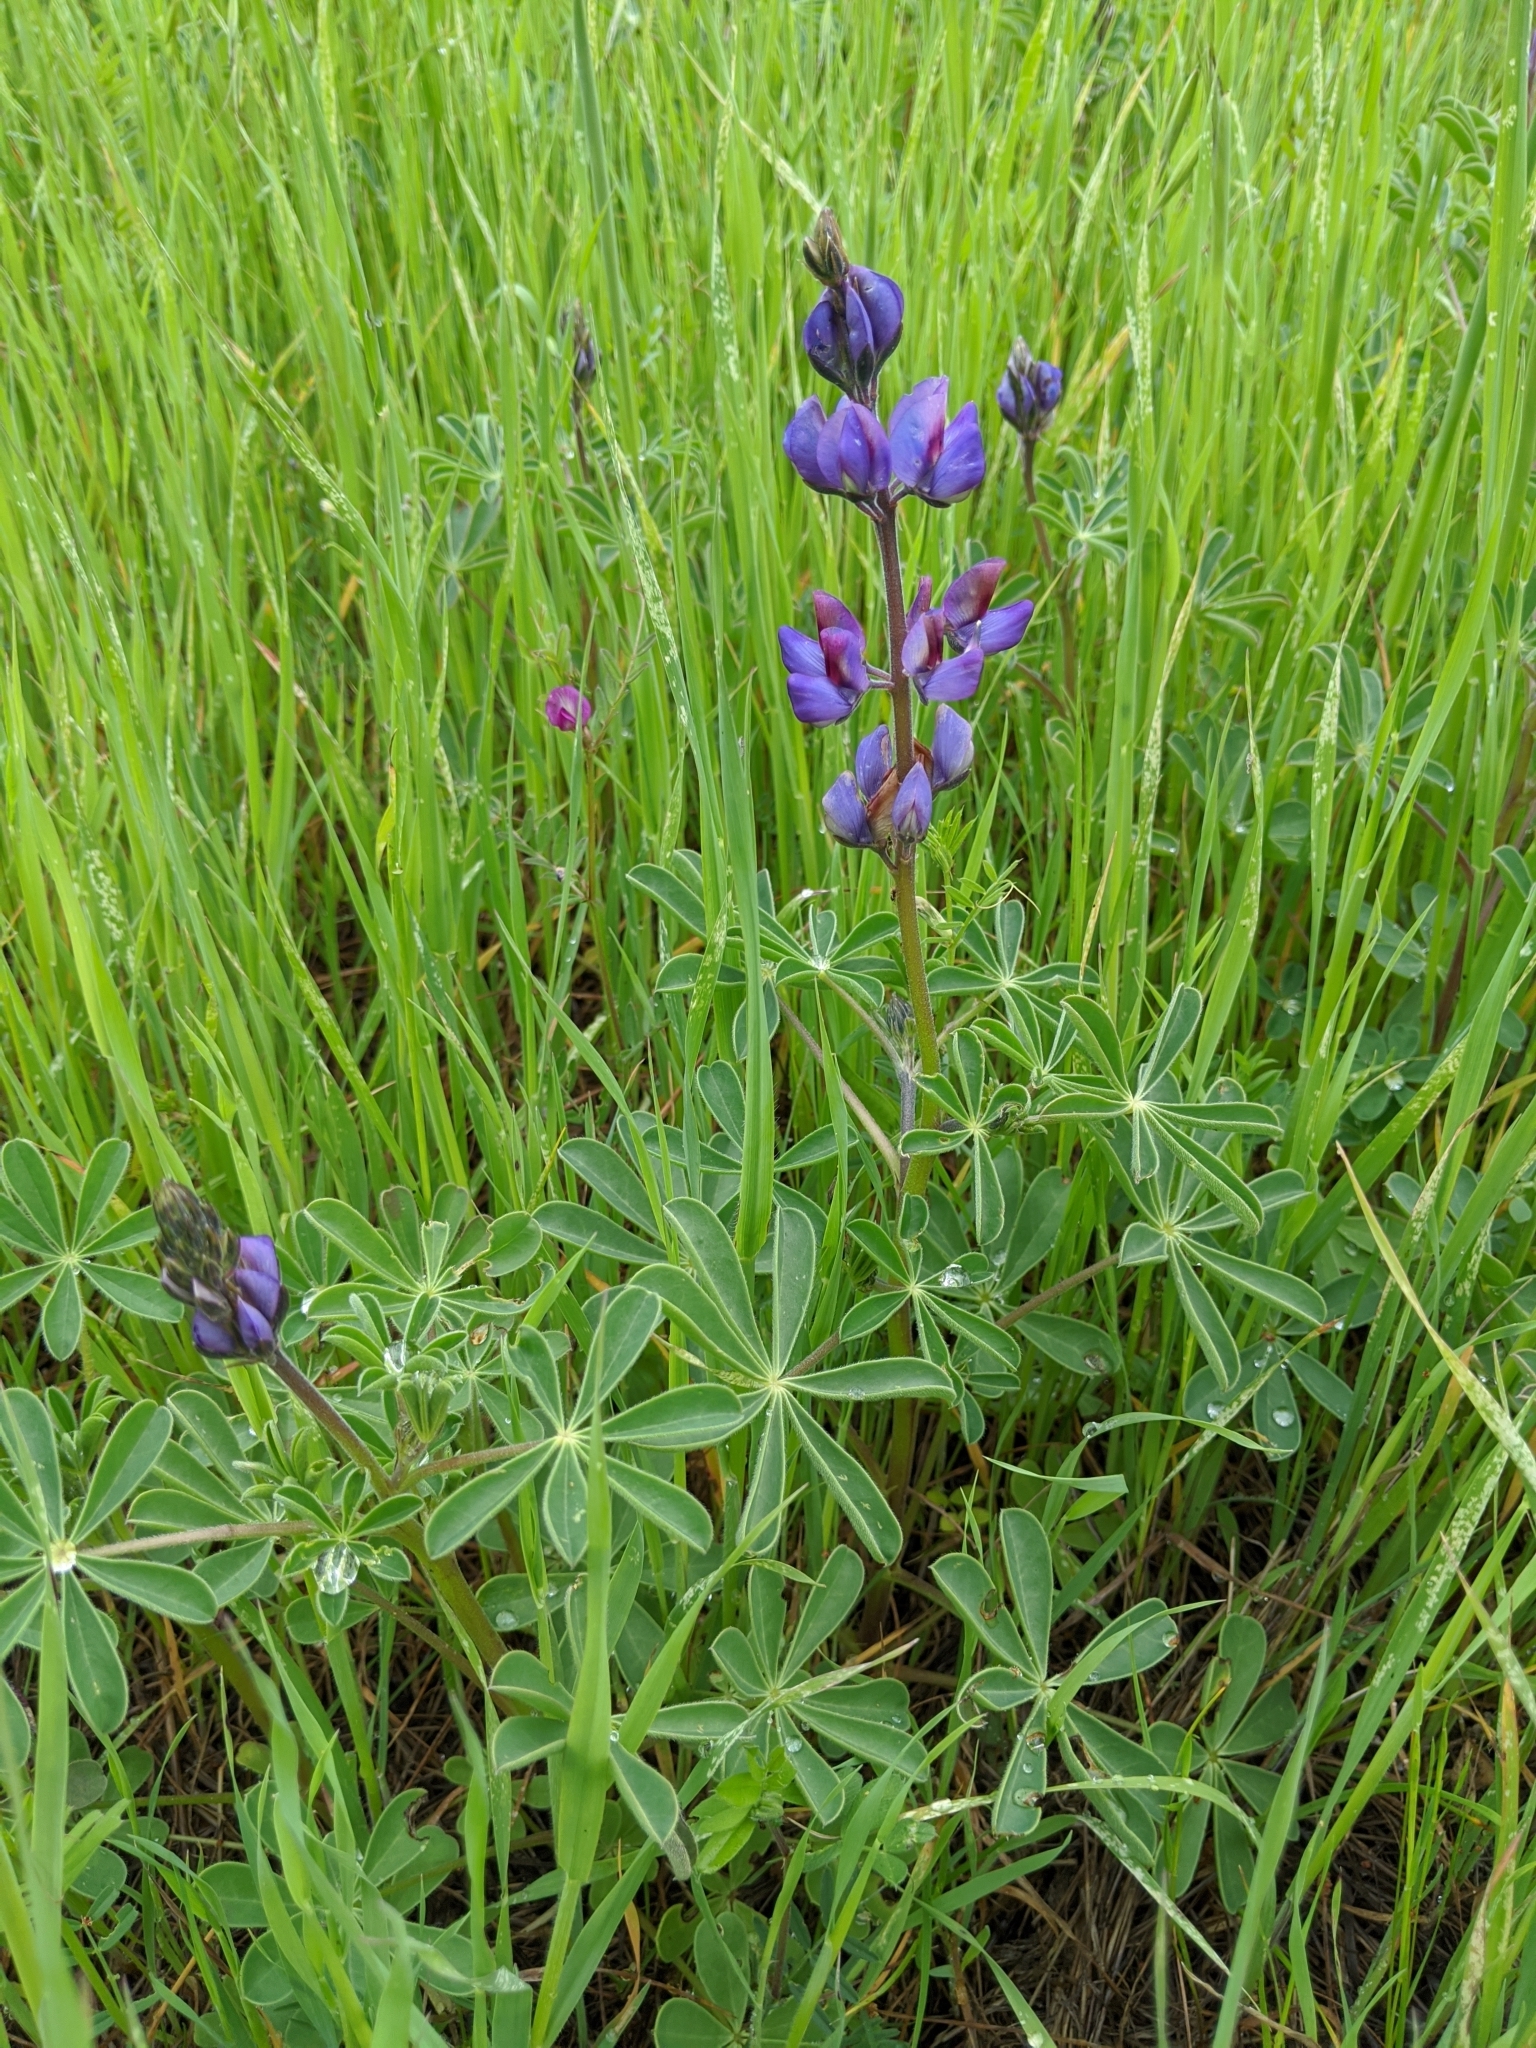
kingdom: Plantae
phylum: Tracheophyta
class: Magnoliopsida
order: Fabales
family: Fabaceae
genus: Lupinus
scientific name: Lupinus succulentus
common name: Arroyo lupine
